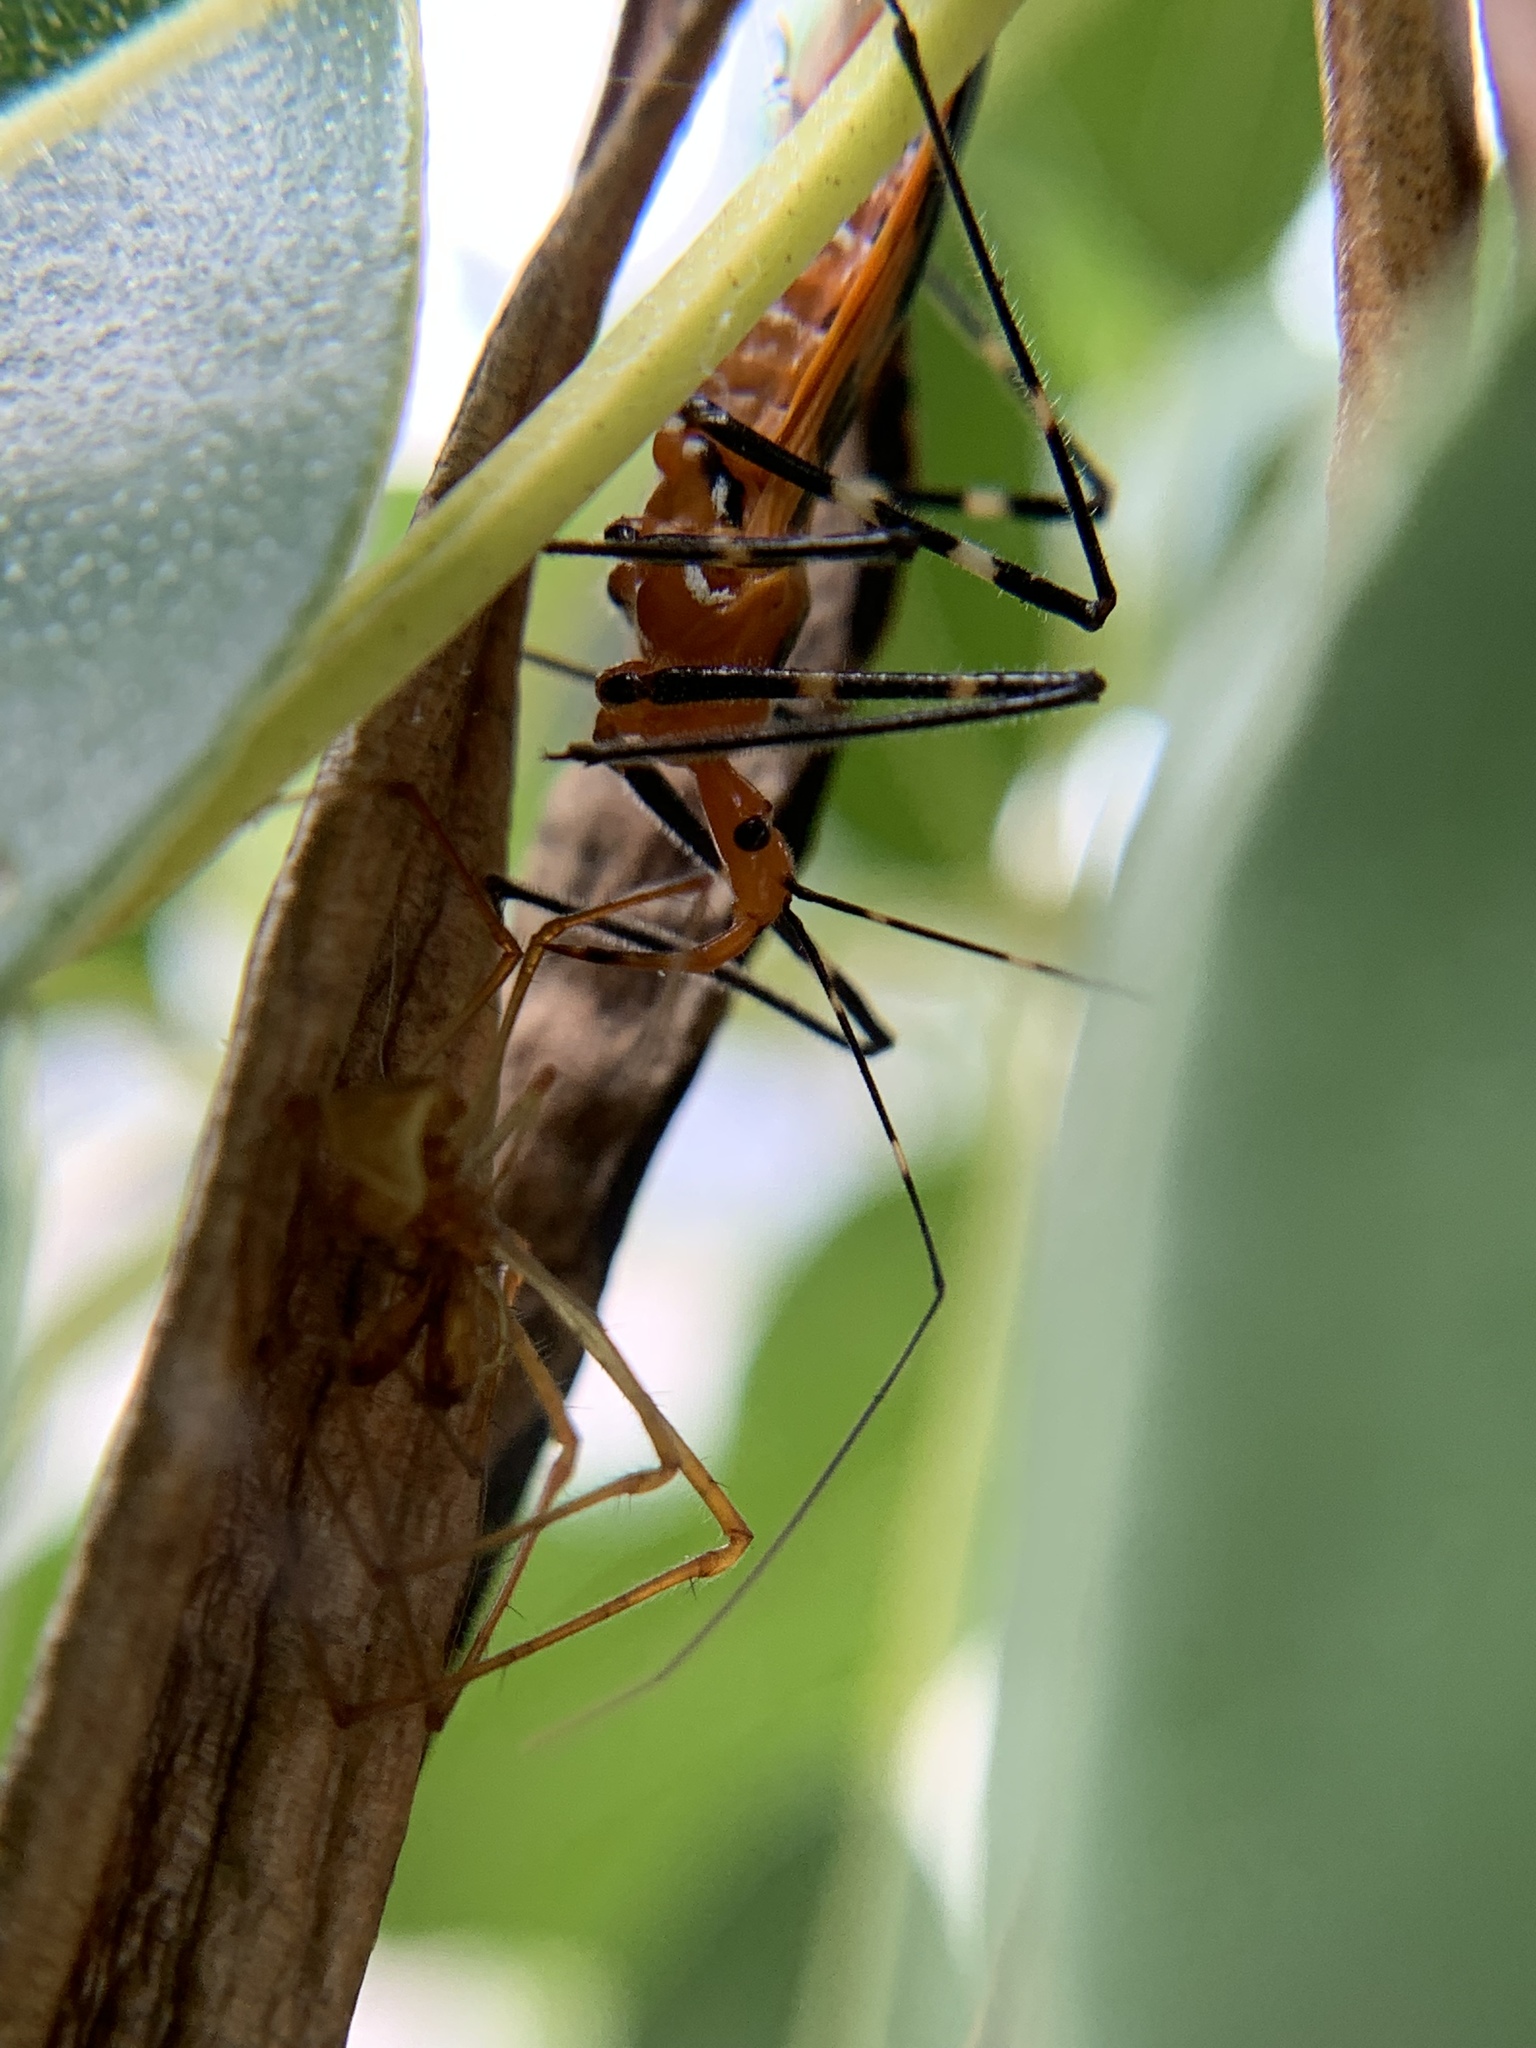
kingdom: Animalia
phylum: Arthropoda
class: Insecta
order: Hemiptera
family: Reduviidae
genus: Zelus
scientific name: Zelus longipes
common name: Milkweed assassin bug
